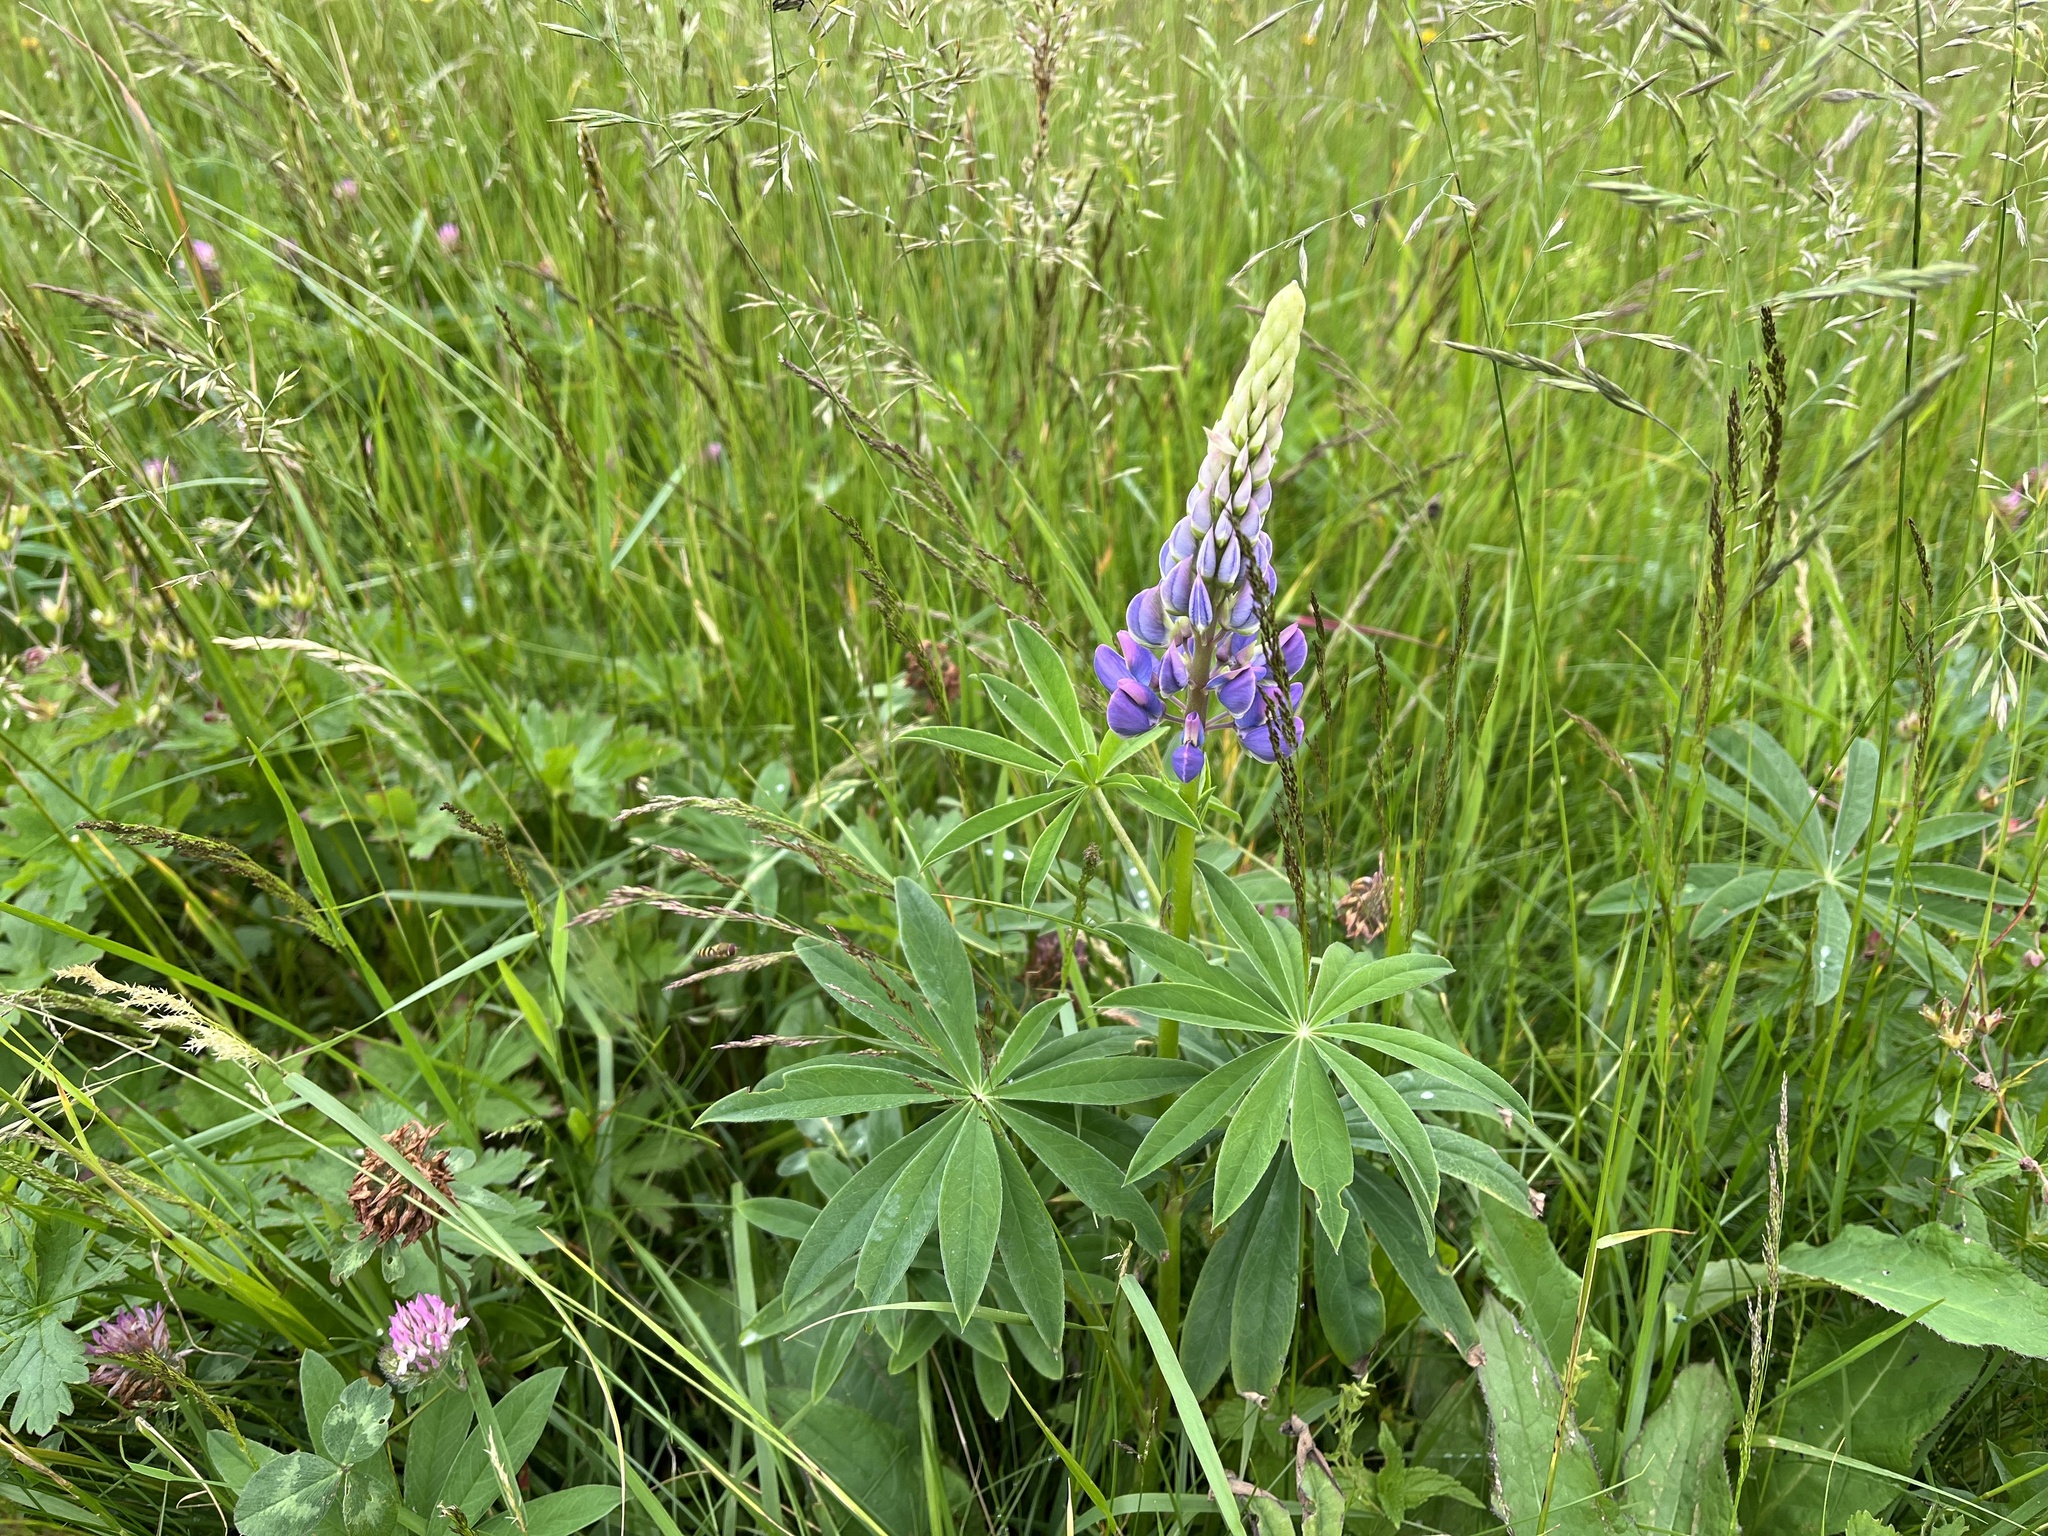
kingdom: Plantae
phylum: Tracheophyta
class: Magnoliopsida
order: Fabales
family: Fabaceae
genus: Lupinus
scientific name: Lupinus polyphyllus
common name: Garden lupin
